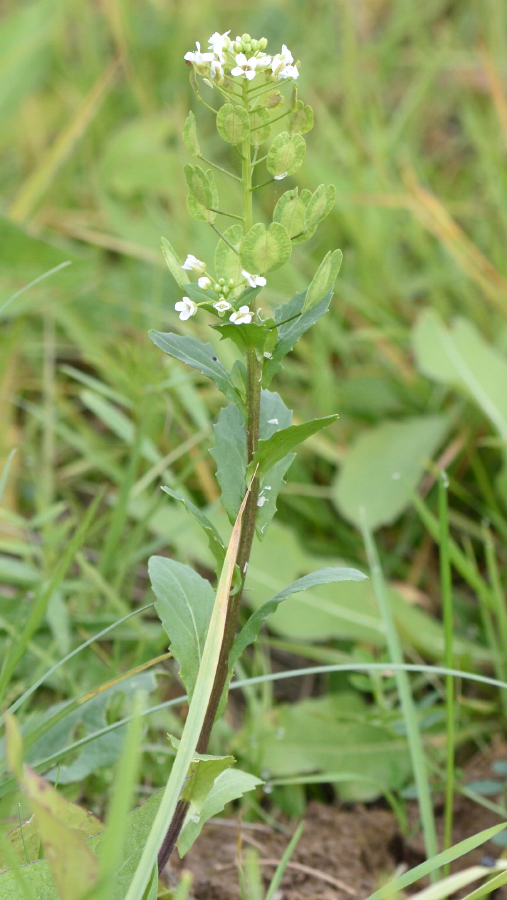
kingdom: Plantae
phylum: Tracheophyta
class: Magnoliopsida
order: Brassicales
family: Brassicaceae
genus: Thlaspi
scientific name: Thlaspi arvense
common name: Field pennycress
